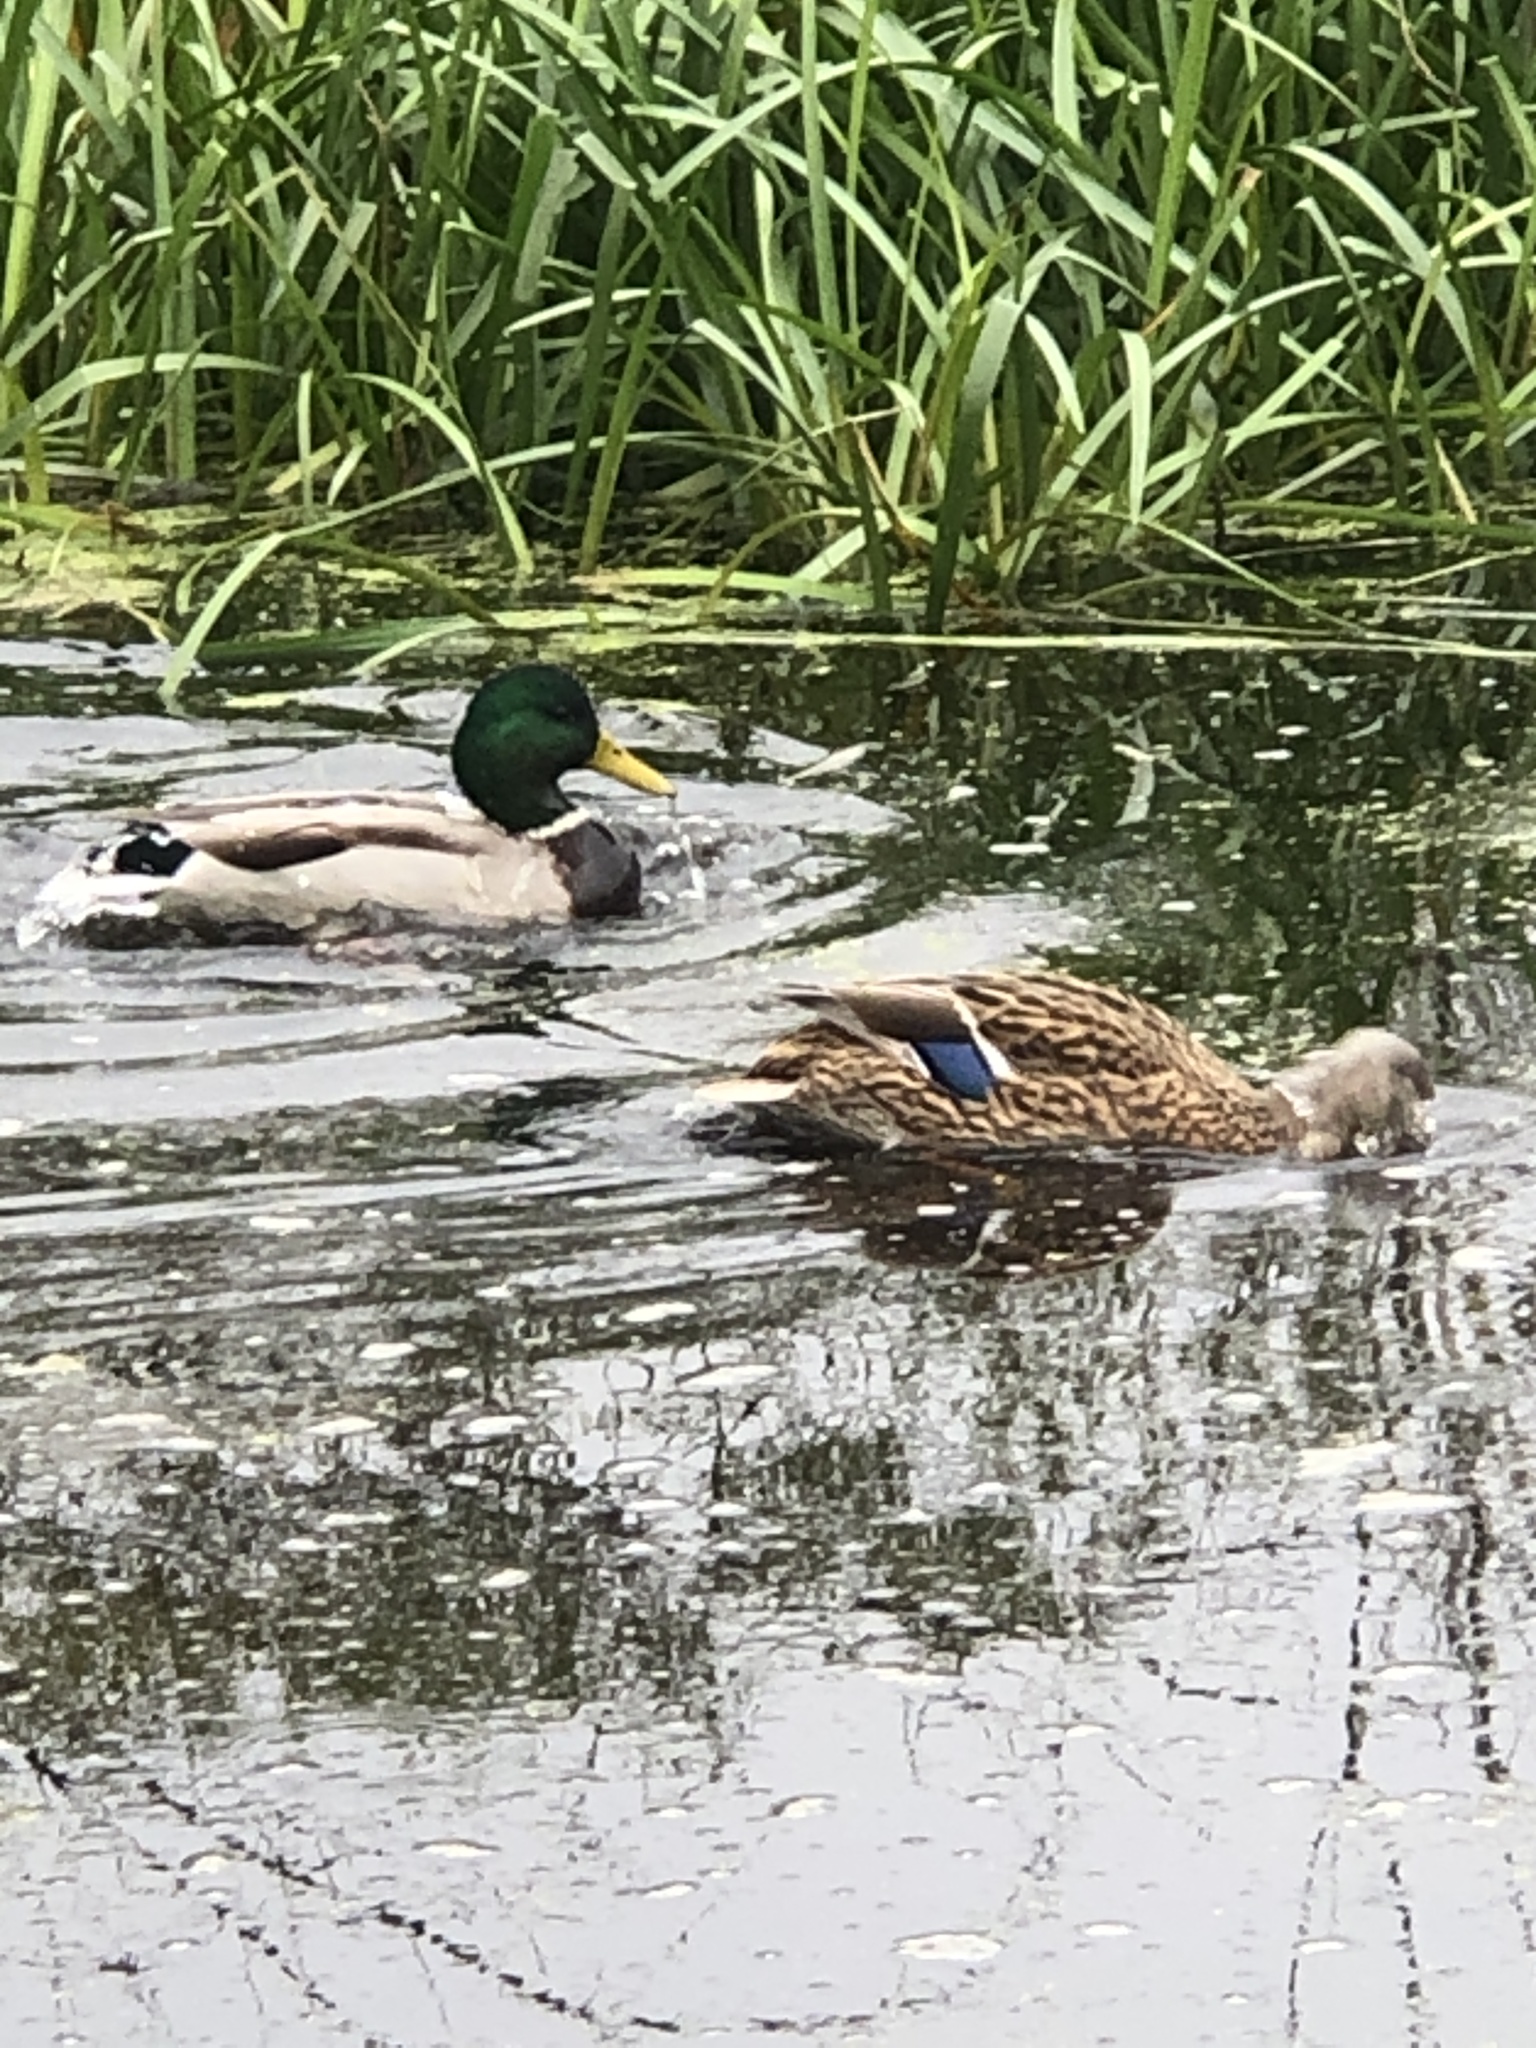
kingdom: Animalia
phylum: Chordata
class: Aves
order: Anseriformes
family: Anatidae
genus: Anas
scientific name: Anas platyrhynchos
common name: Mallard
